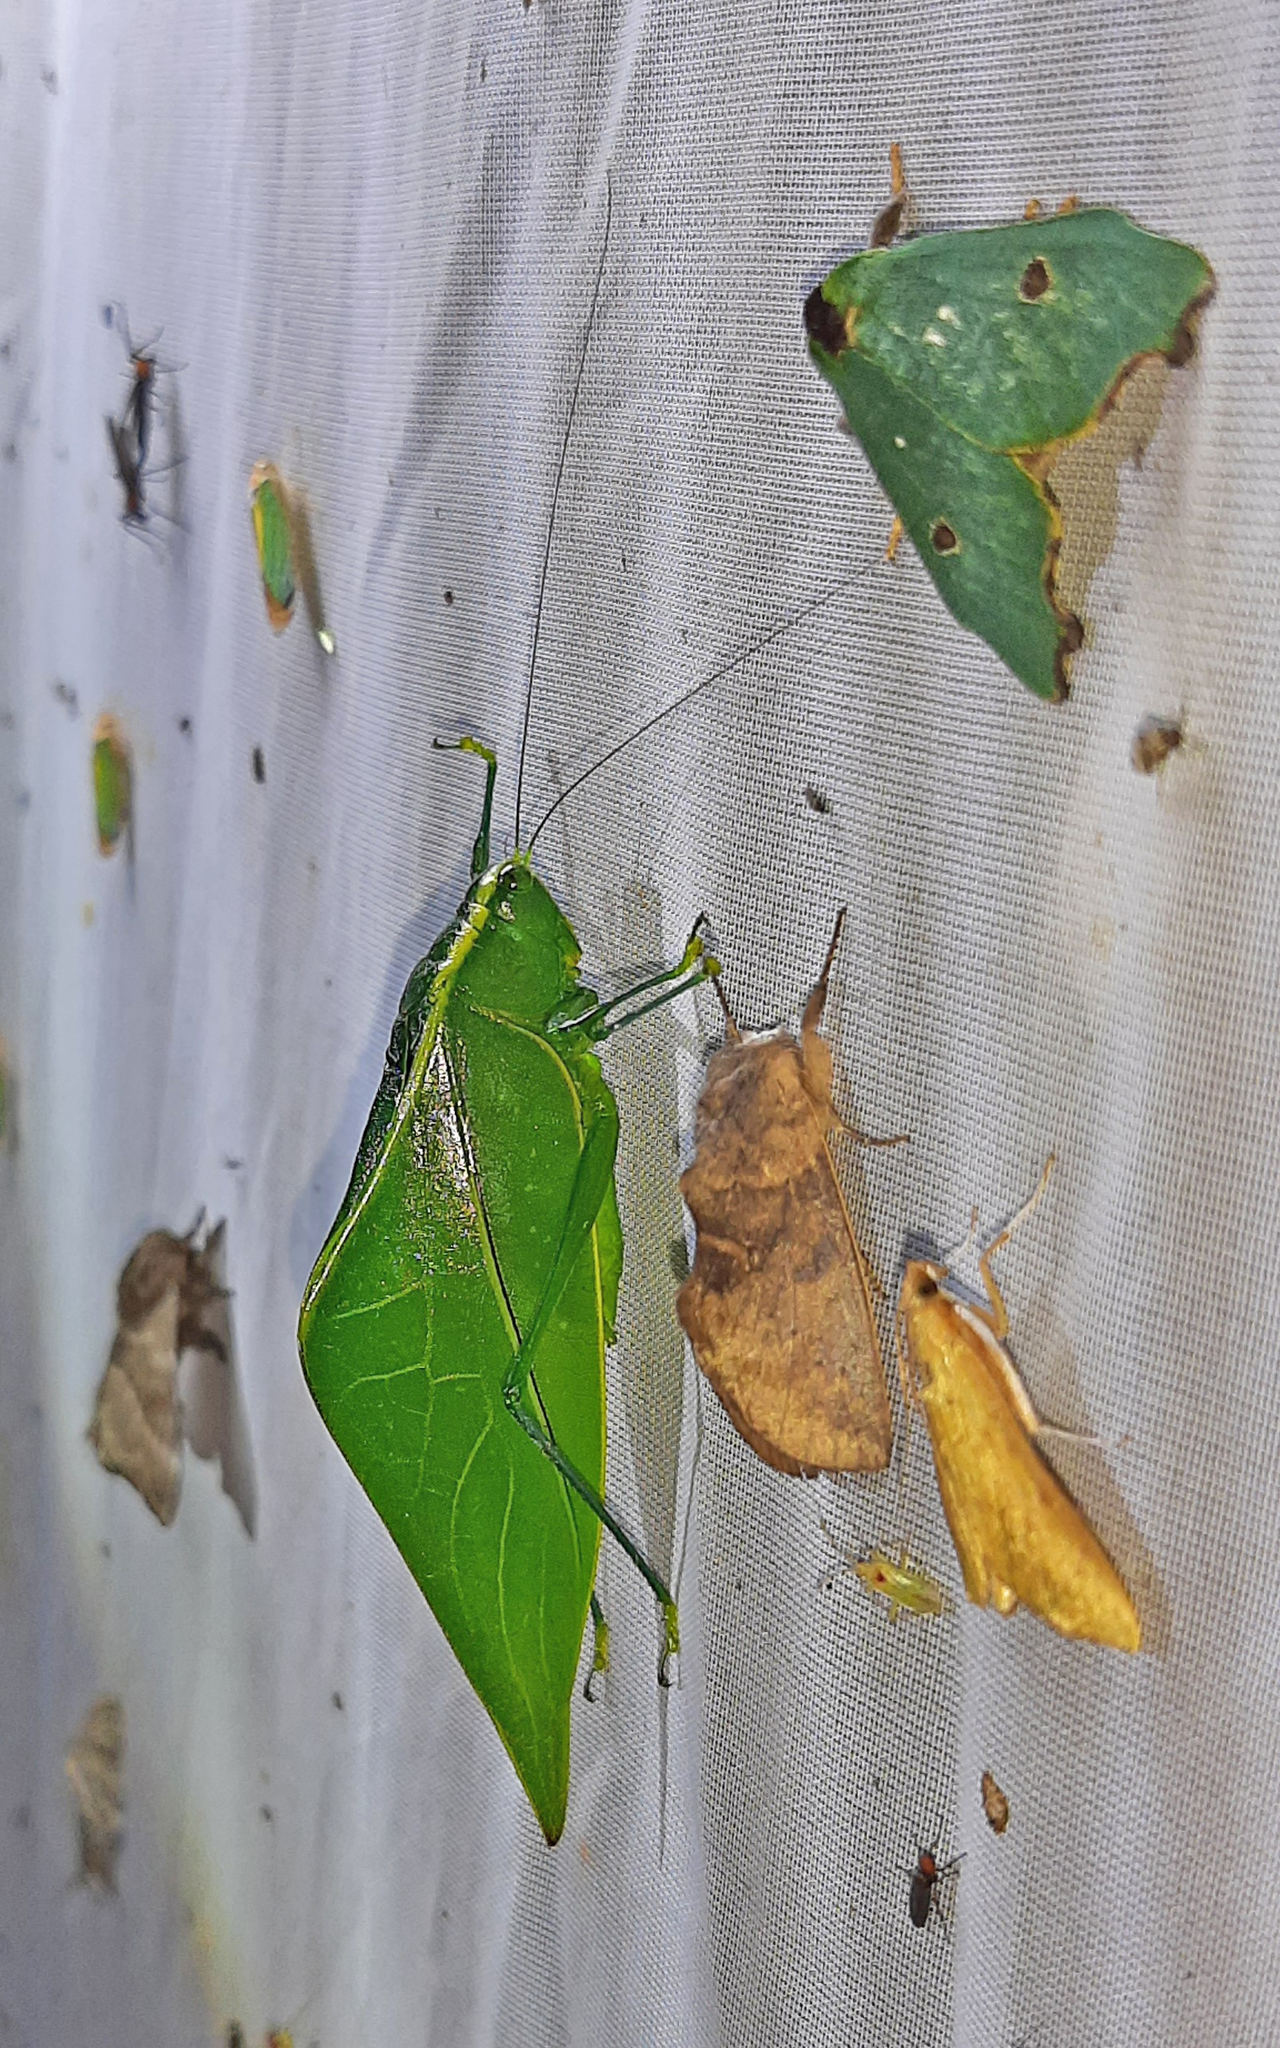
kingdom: Animalia
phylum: Arthropoda
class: Insecta
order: Orthoptera
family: Tettigoniidae
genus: Acropsis
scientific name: Acropsis tectiformis
